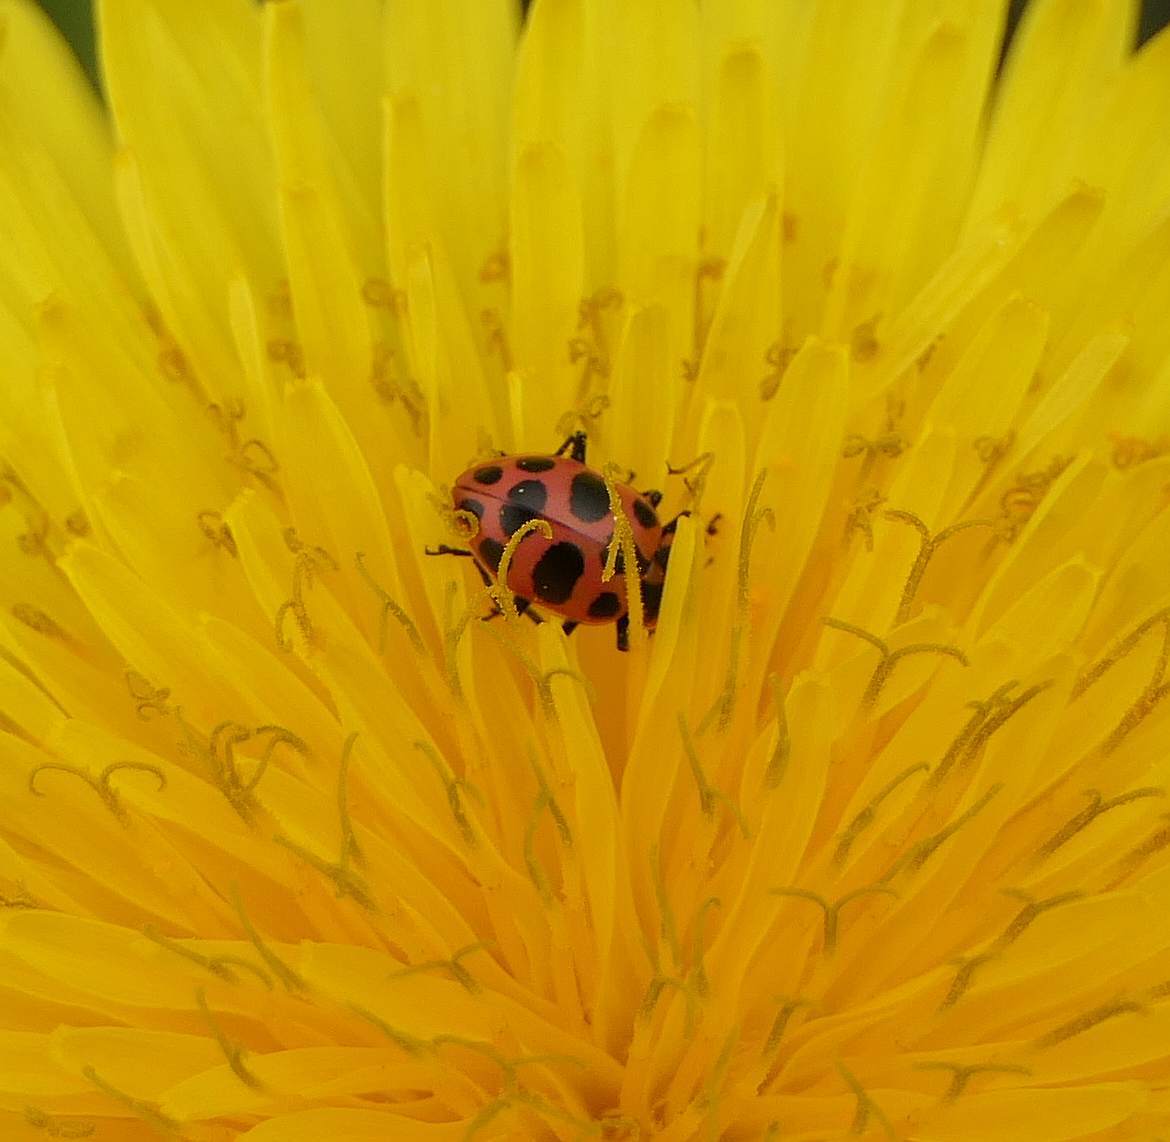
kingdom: Animalia
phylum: Arthropoda
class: Insecta
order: Coleoptera
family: Coccinellidae
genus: Coleomegilla
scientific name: Coleomegilla maculata
